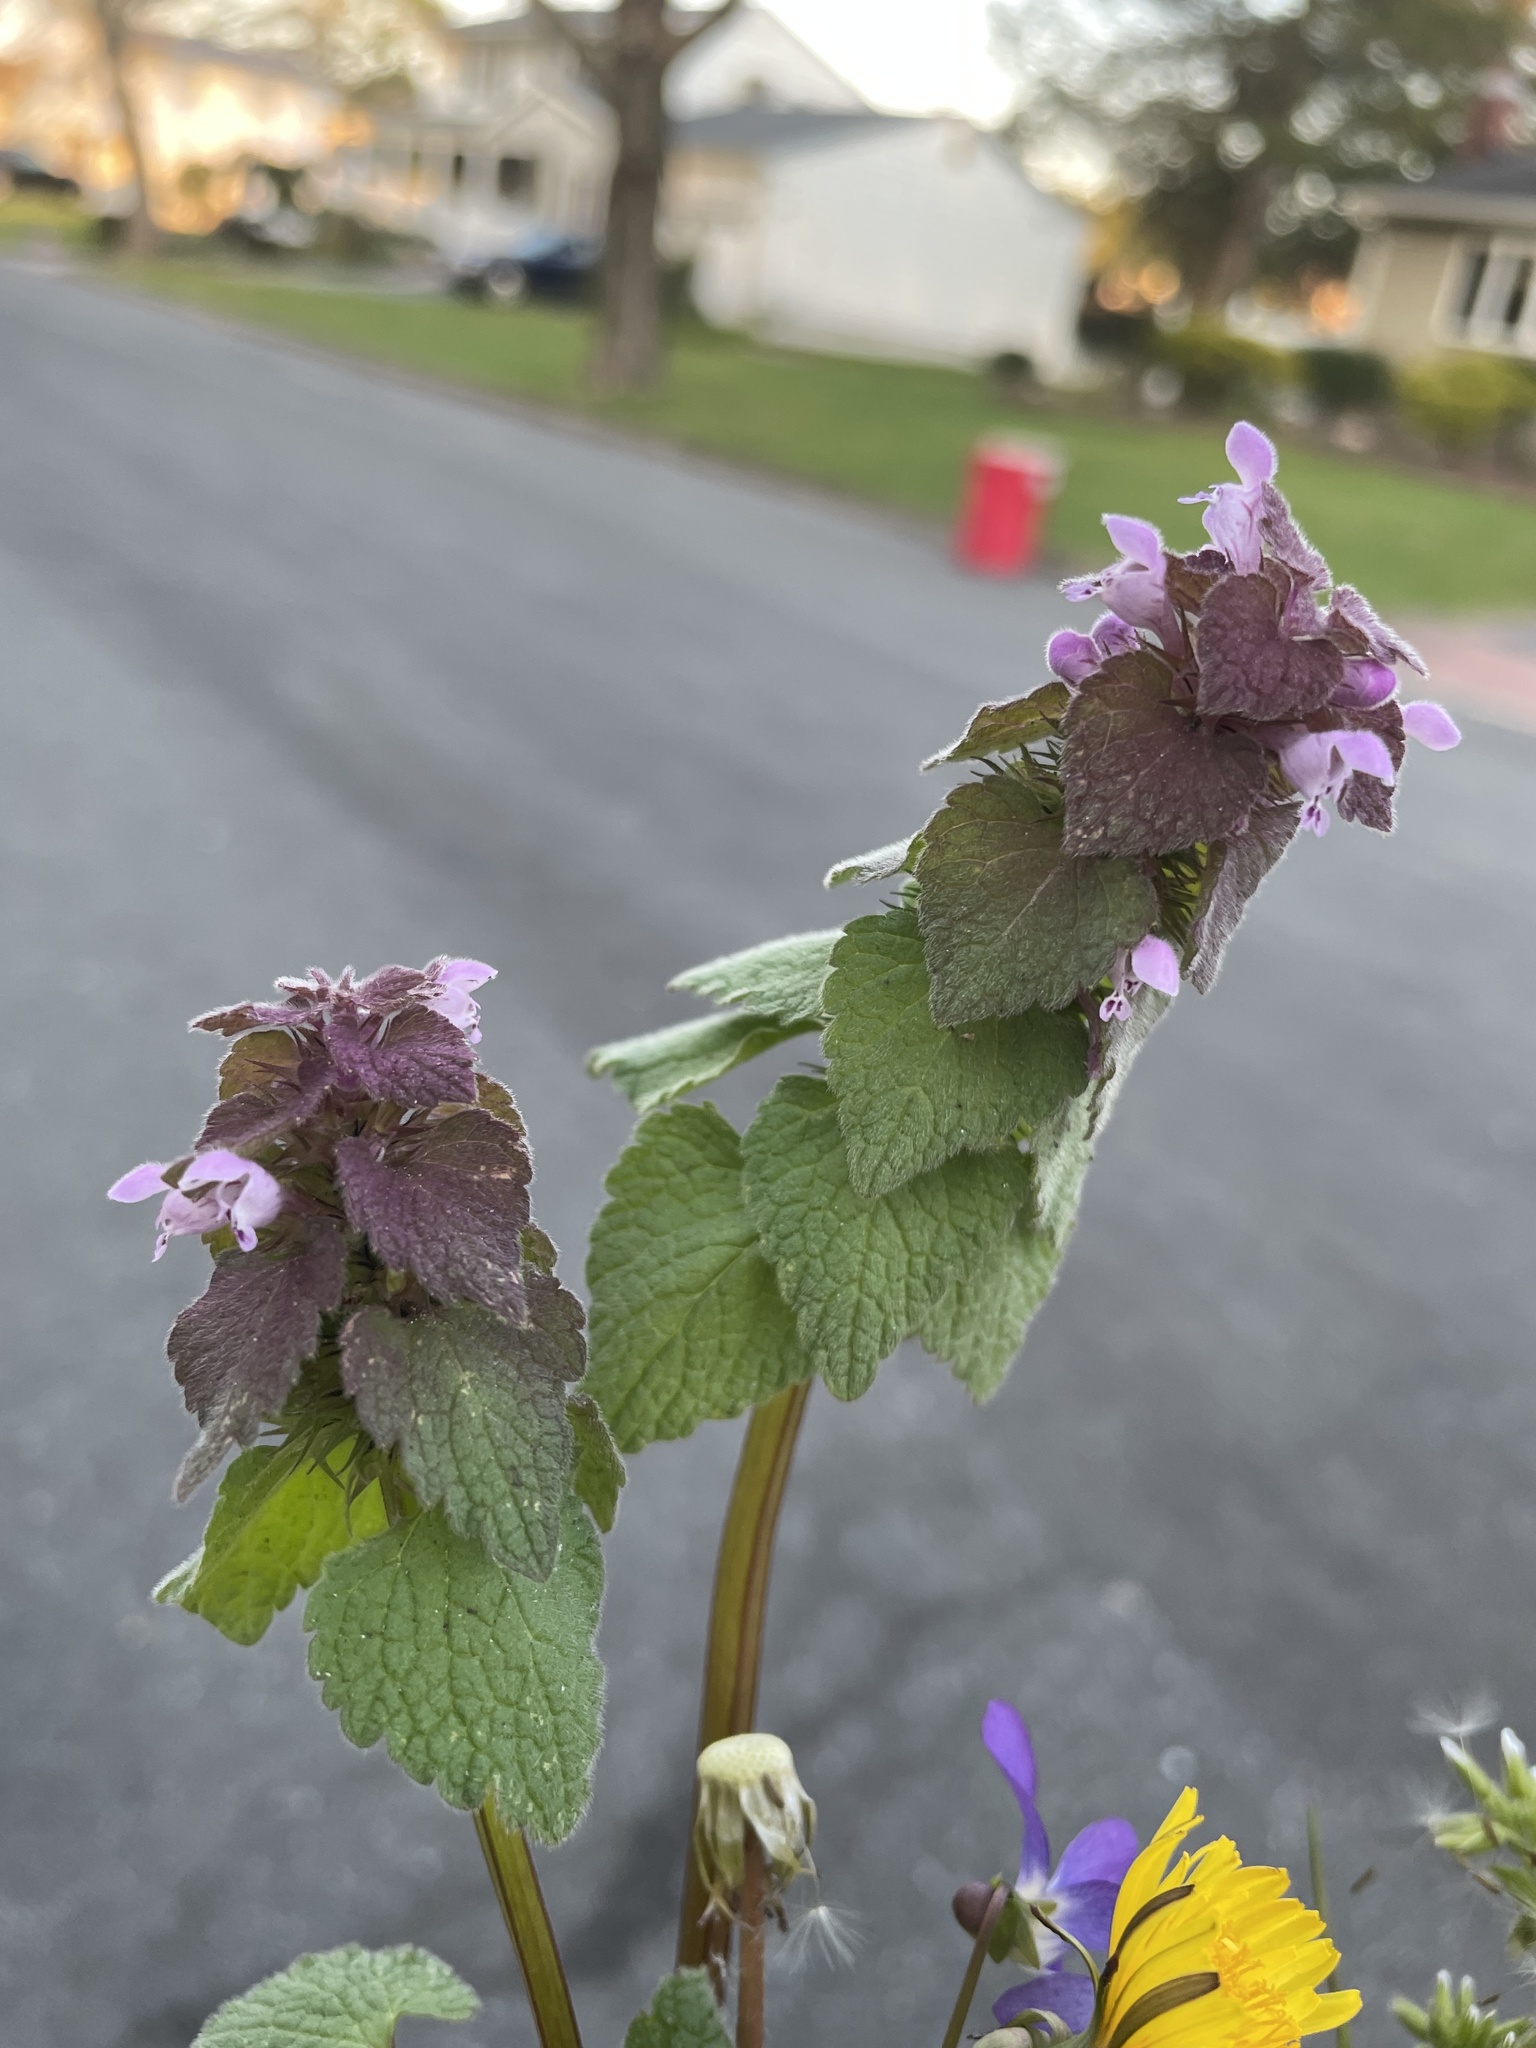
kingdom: Plantae
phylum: Tracheophyta
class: Magnoliopsida
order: Lamiales
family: Lamiaceae
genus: Lamium
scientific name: Lamium purpureum
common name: Red dead-nettle
